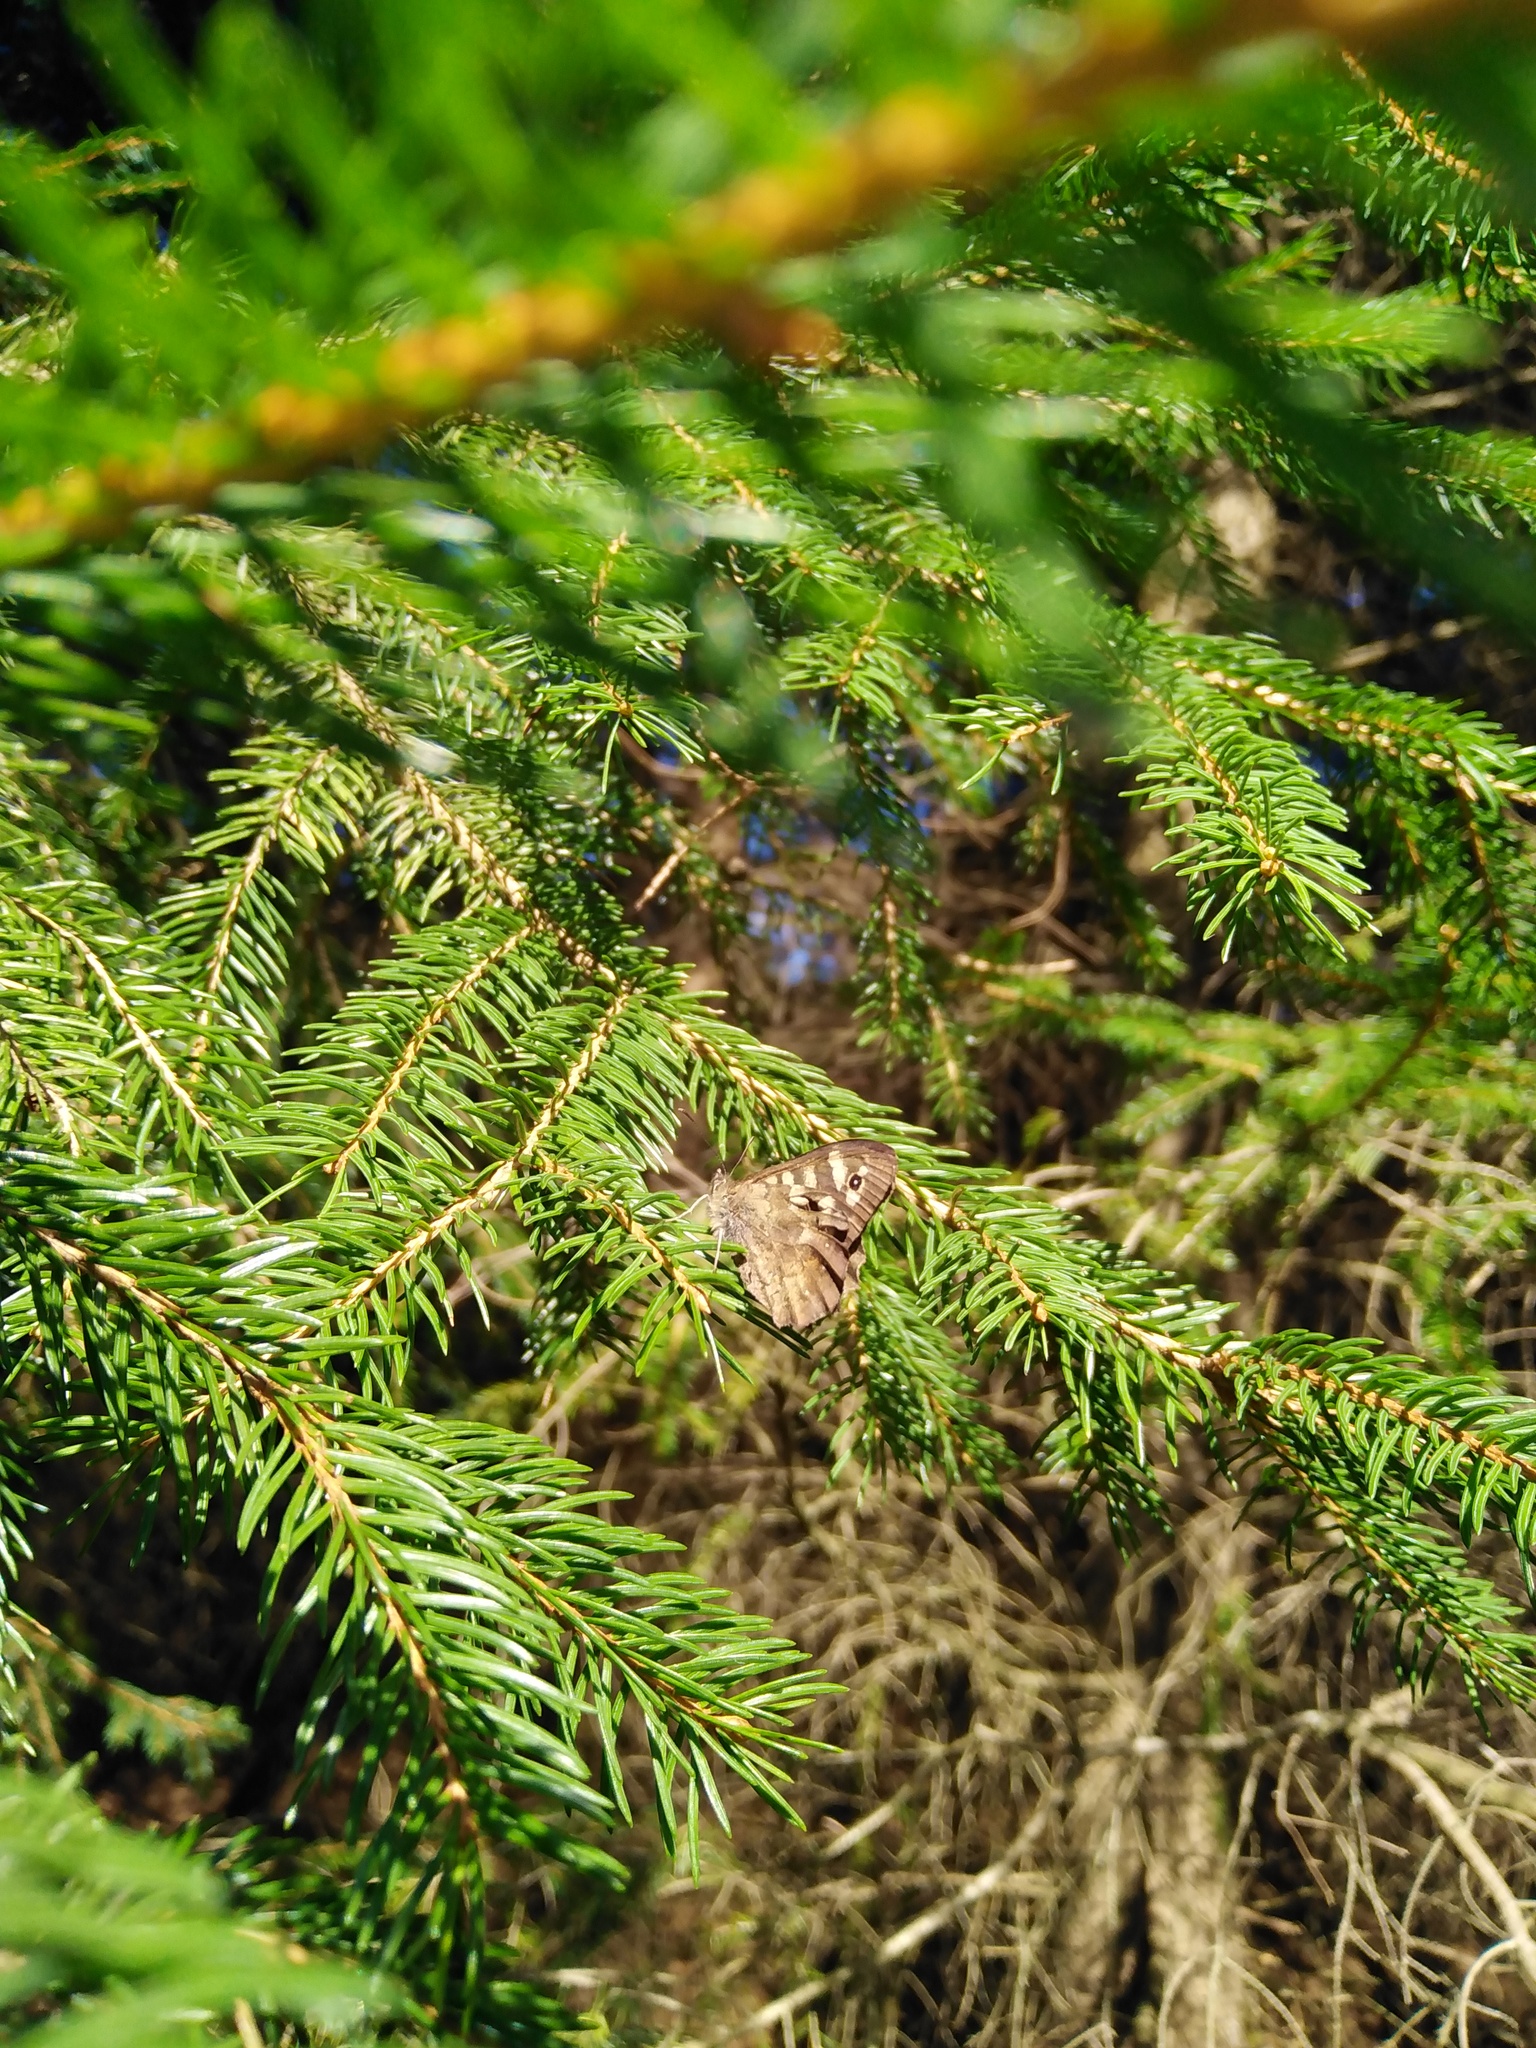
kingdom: Animalia
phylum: Arthropoda
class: Insecta
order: Lepidoptera
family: Nymphalidae
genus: Pararge
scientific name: Pararge aegeria
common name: Speckled wood
